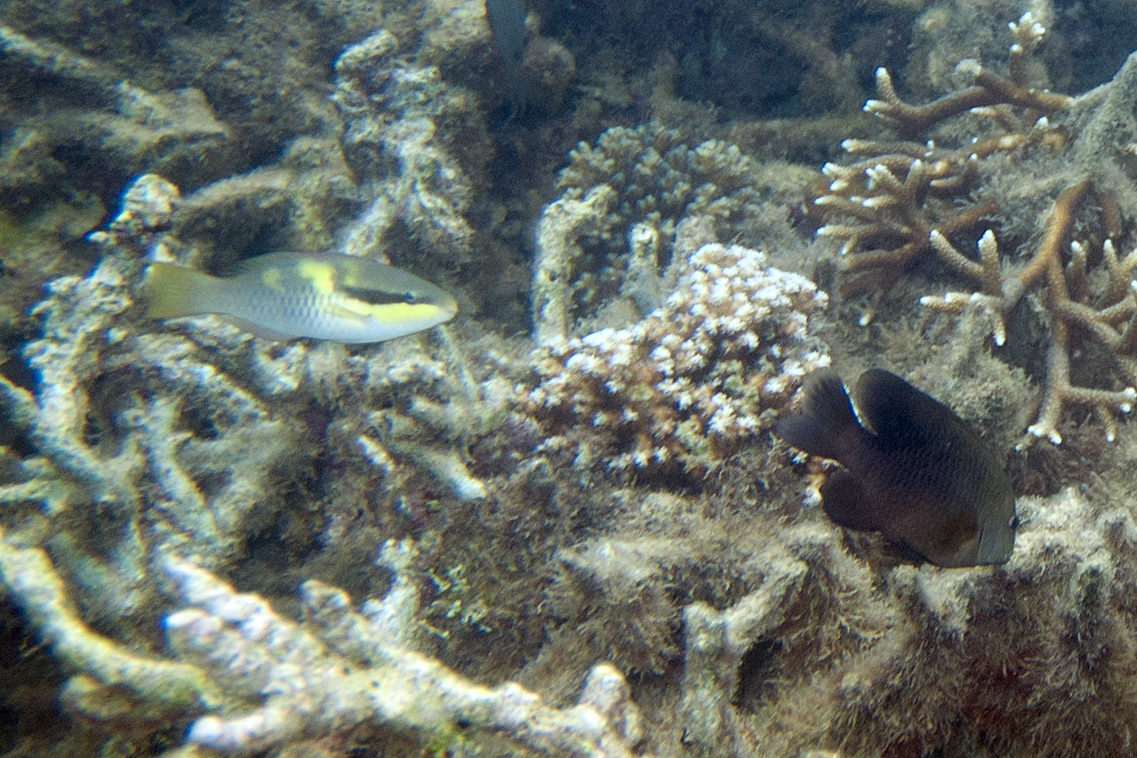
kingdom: Animalia
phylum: Chordata
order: Perciformes
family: Pomacentridae
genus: Stegastes
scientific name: Stegastes punctatus
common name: Blunt snout gregory
